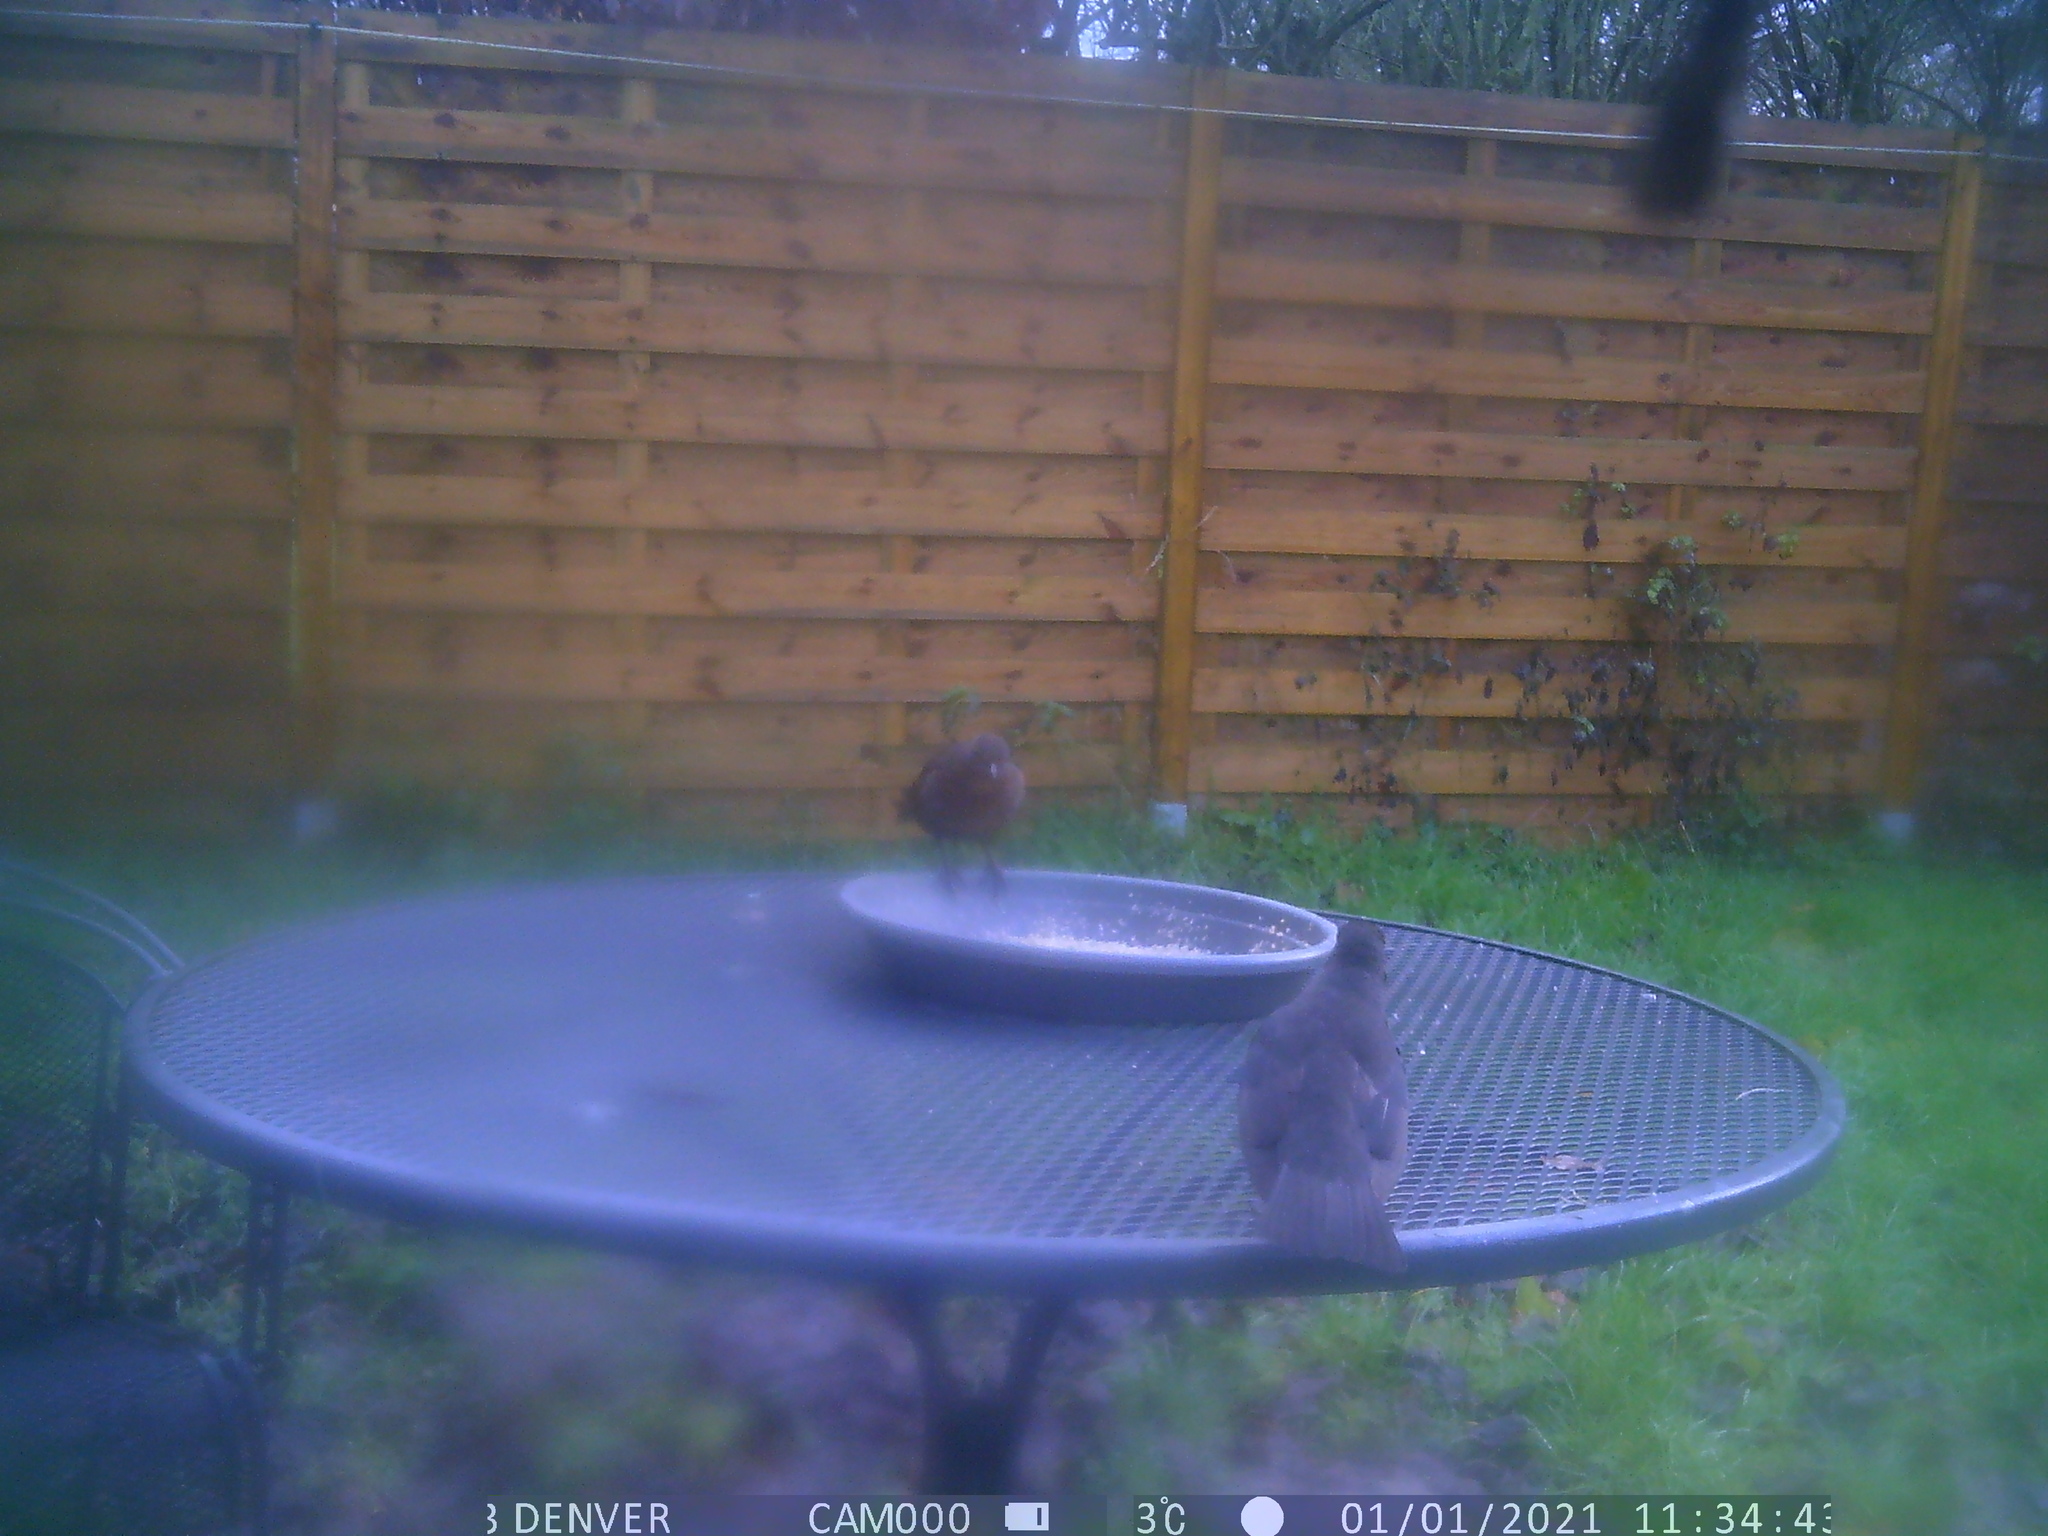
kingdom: Animalia
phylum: Chordata
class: Aves
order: Passeriformes
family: Turdidae
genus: Turdus
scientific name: Turdus merula
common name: Common blackbird
